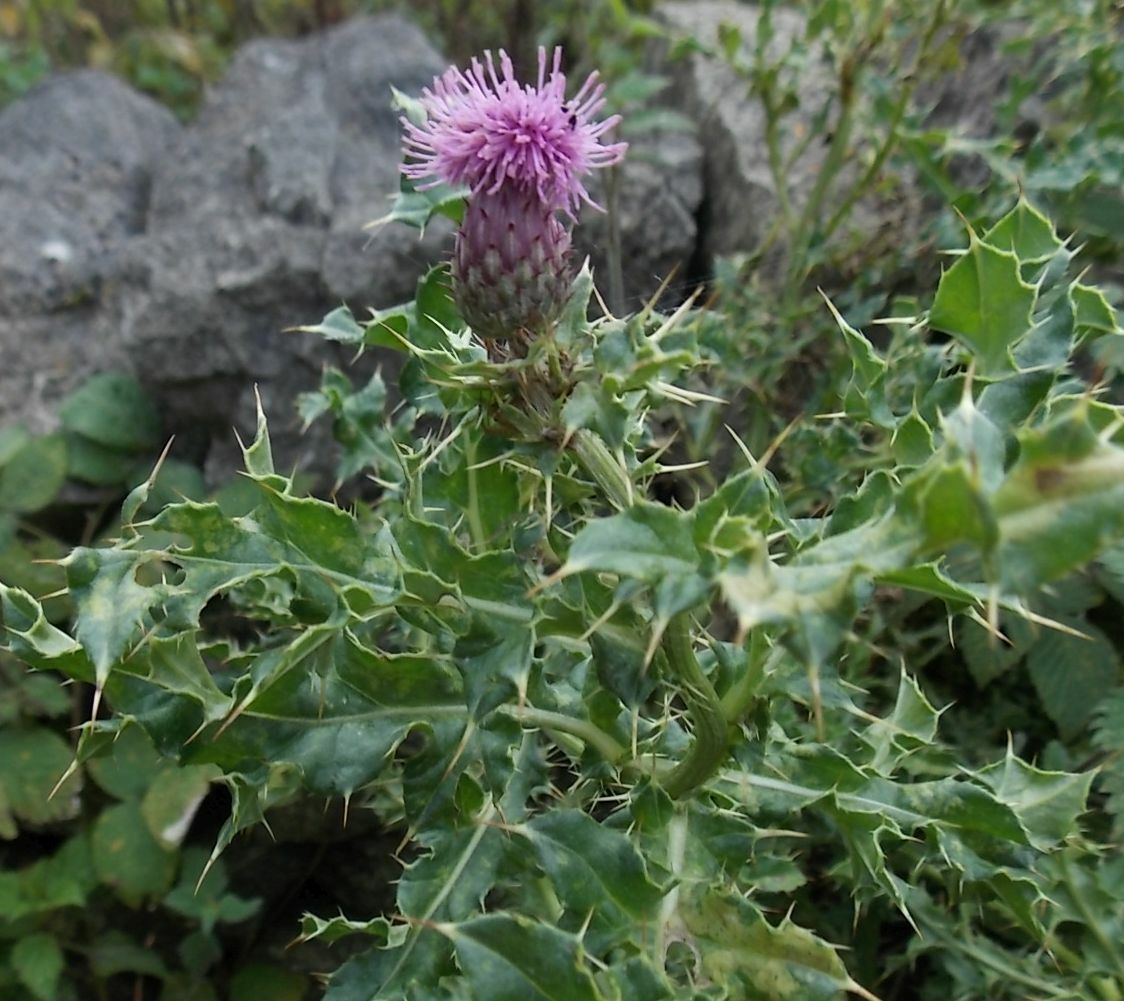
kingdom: Plantae
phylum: Tracheophyta
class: Magnoliopsida
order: Asterales
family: Asteraceae
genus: Cirsium
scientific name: Cirsium arvense
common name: Creeping thistle
